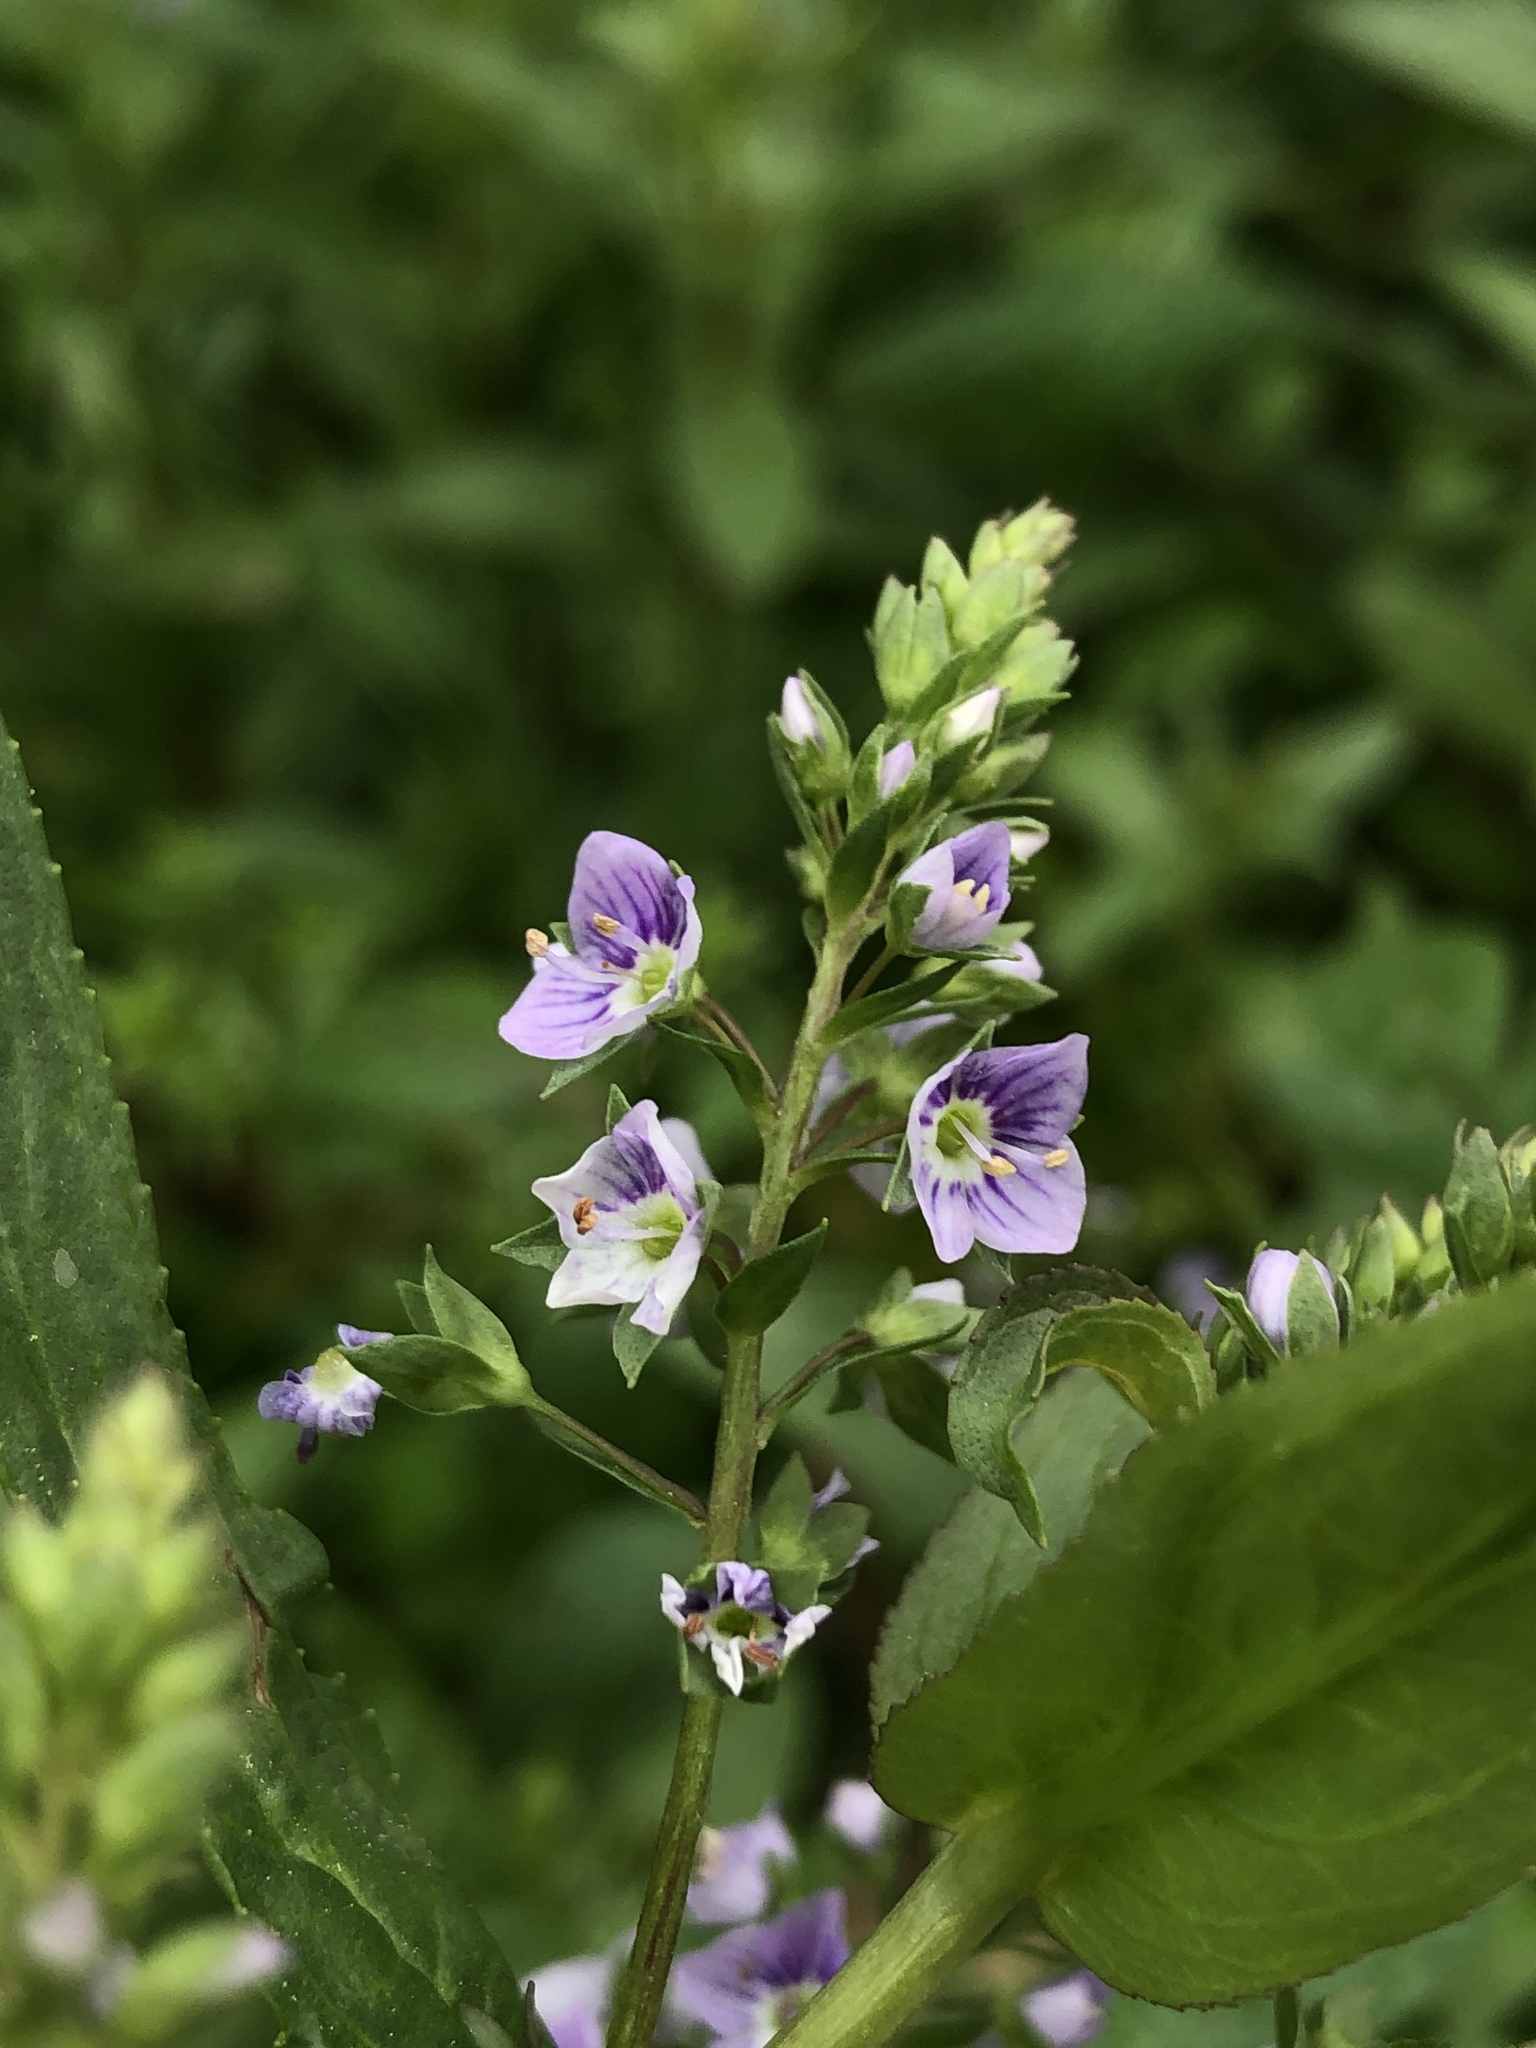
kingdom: Plantae
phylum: Tracheophyta
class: Magnoliopsida
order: Lamiales
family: Plantaginaceae
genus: Veronica
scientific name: Veronica anagallis-aquatica
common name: Water speedwell
